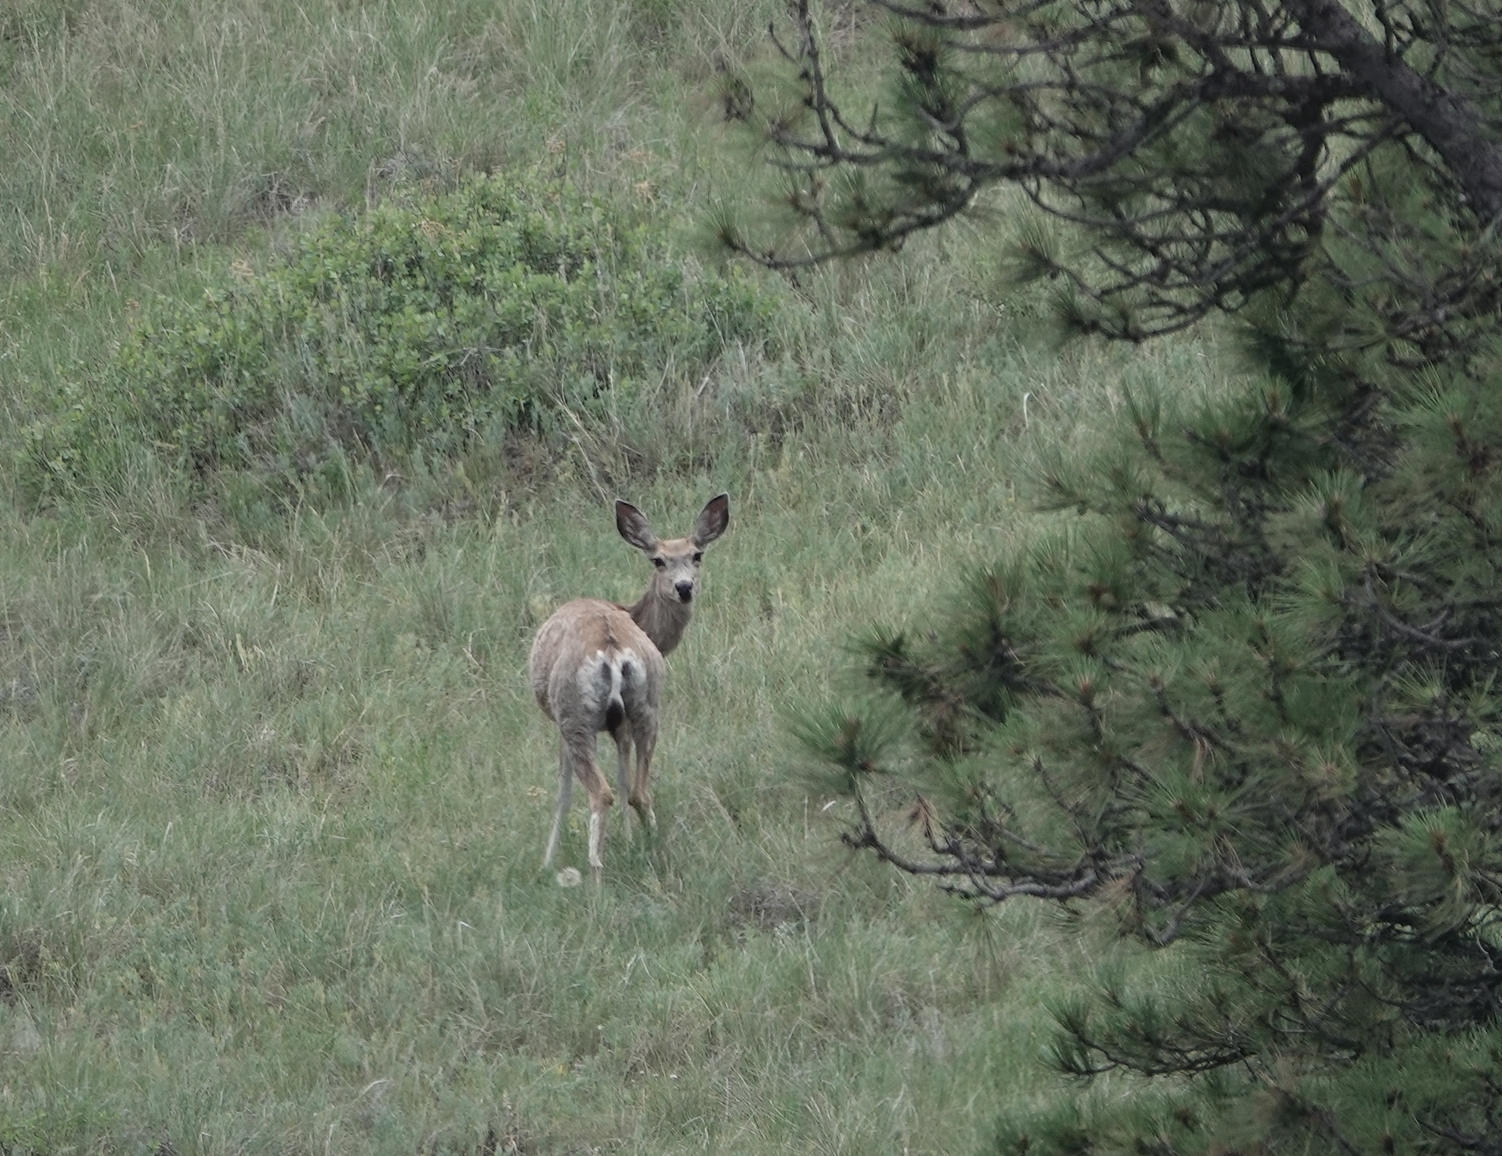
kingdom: Animalia
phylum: Chordata
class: Mammalia
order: Artiodactyla
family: Cervidae
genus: Odocoileus
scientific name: Odocoileus hemionus
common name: Mule deer
